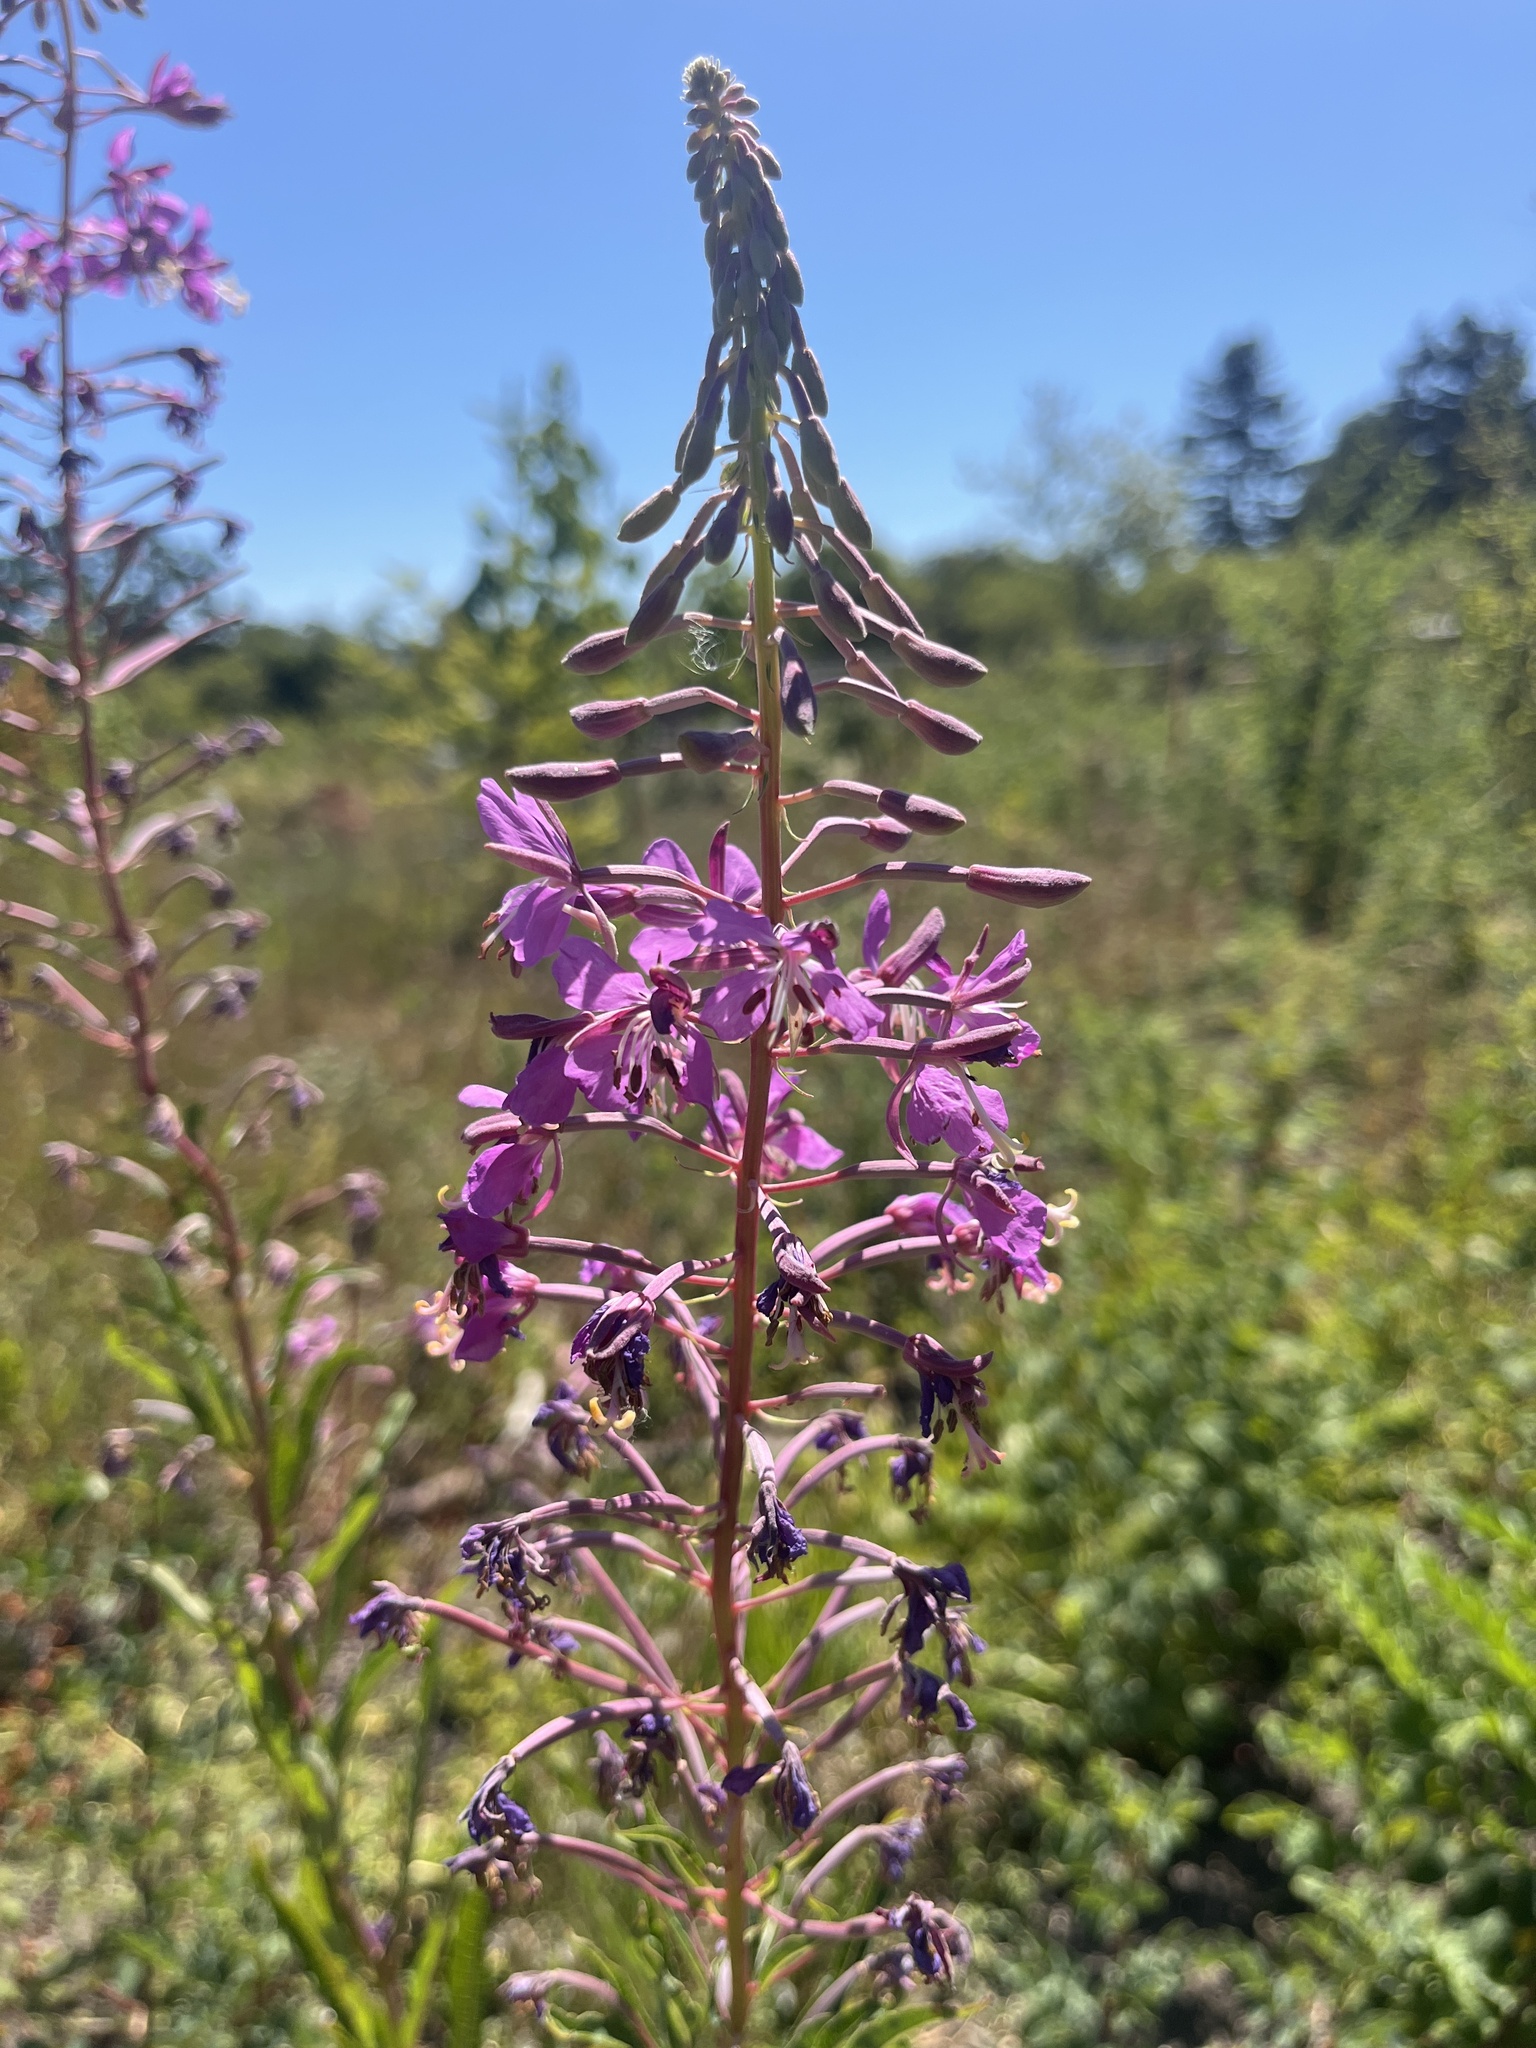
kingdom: Plantae
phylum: Tracheophyta
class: Magnoliopsida
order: Myrtales
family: Onagraceae
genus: Chamaenerion
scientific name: Chamaenerion angustifolium
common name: Fireweed
